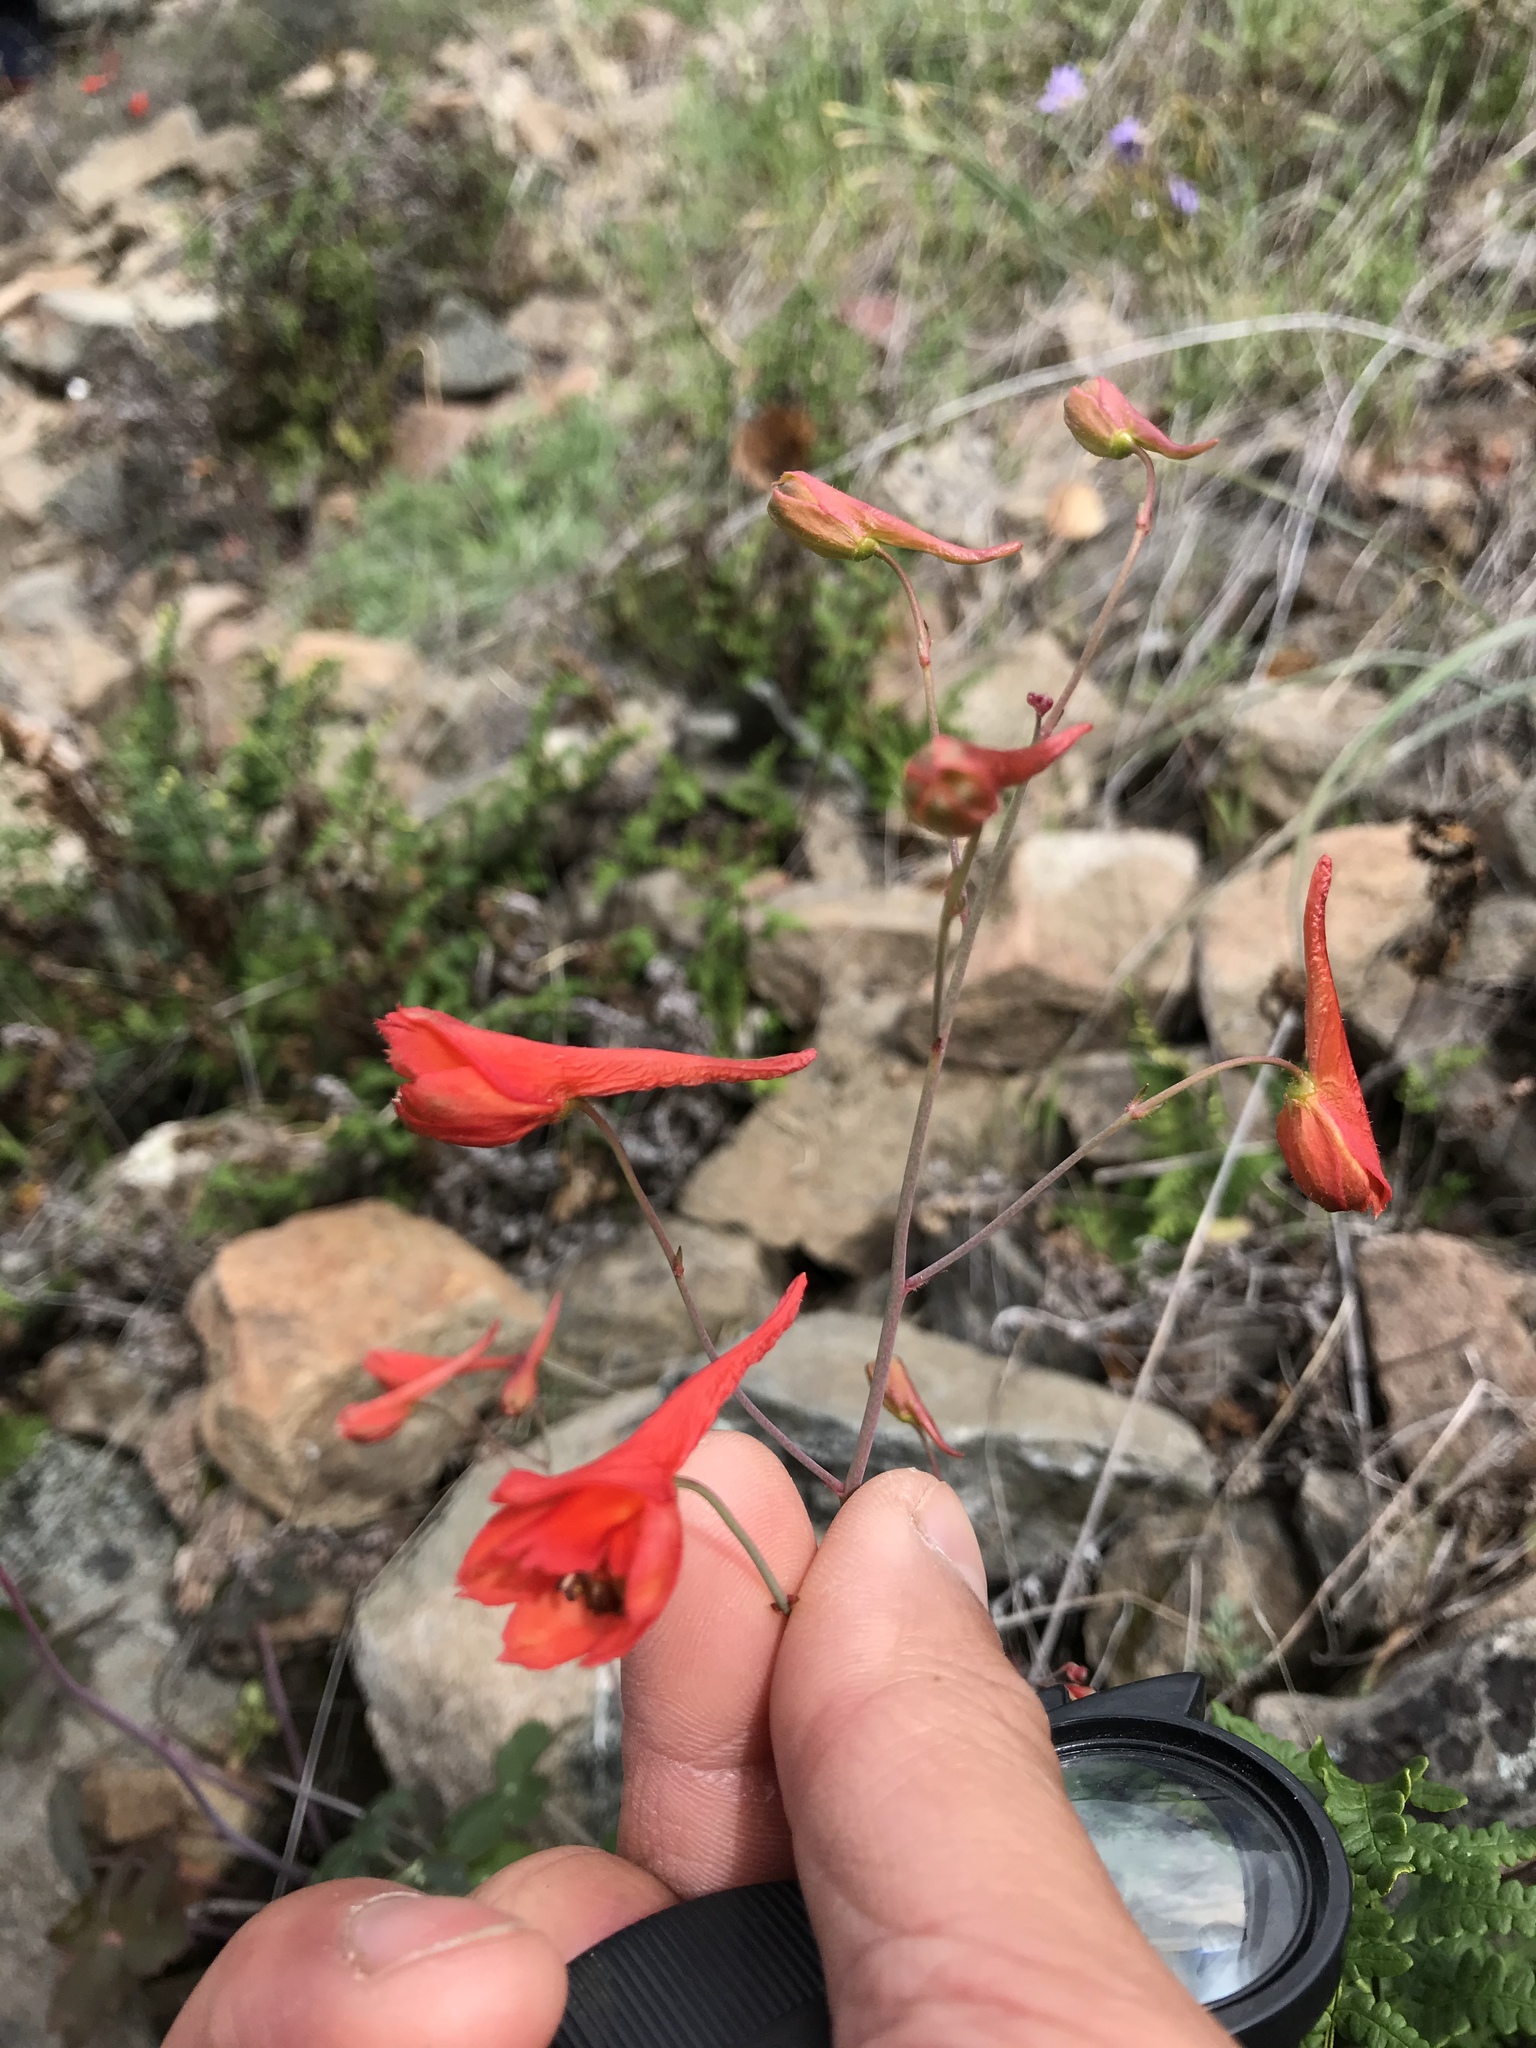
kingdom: Plantae
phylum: Tracheophyta
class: Magnoliopsida
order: Ranunculales
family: Ranunculaceae
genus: Delphinium
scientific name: Delphinium nudicaule
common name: Red larkspur
